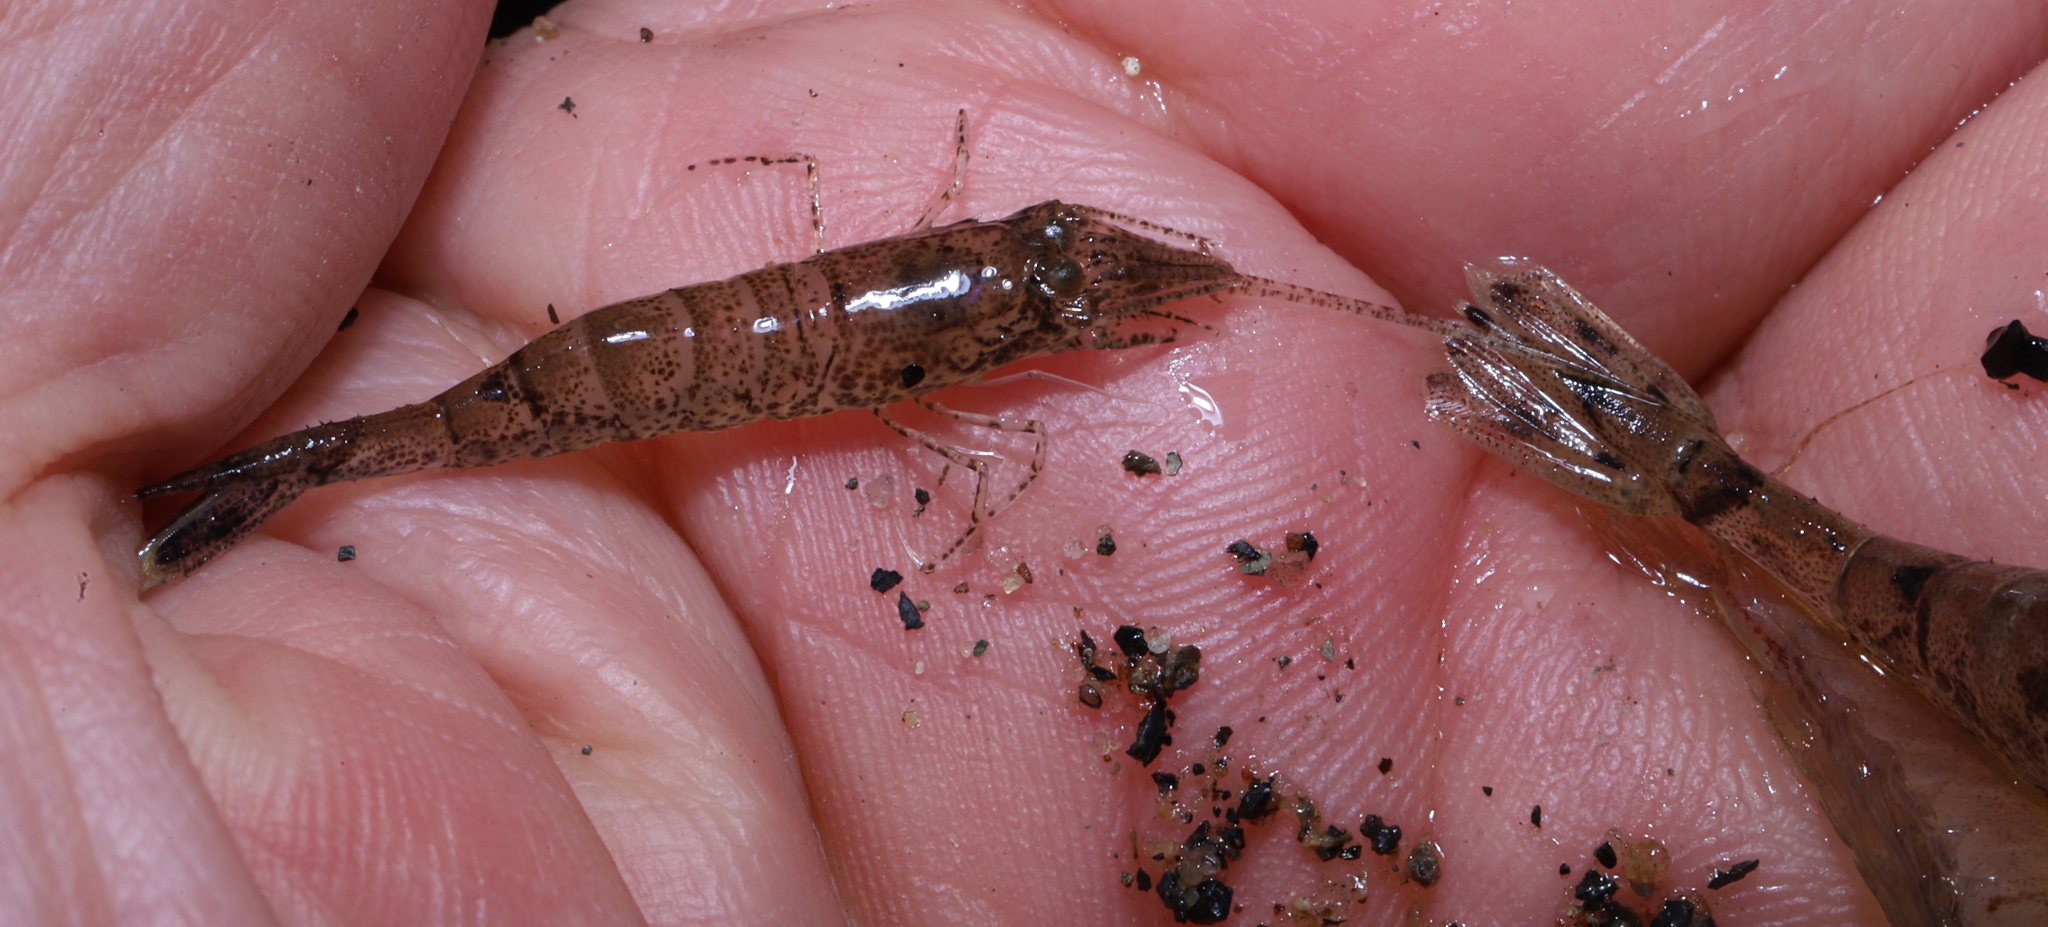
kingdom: Animalia
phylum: Arthropoda
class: Malacostraca
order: Decapoda
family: Crangonidae
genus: Crangon
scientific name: Crangon septemspinosa
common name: Bail shrimp
